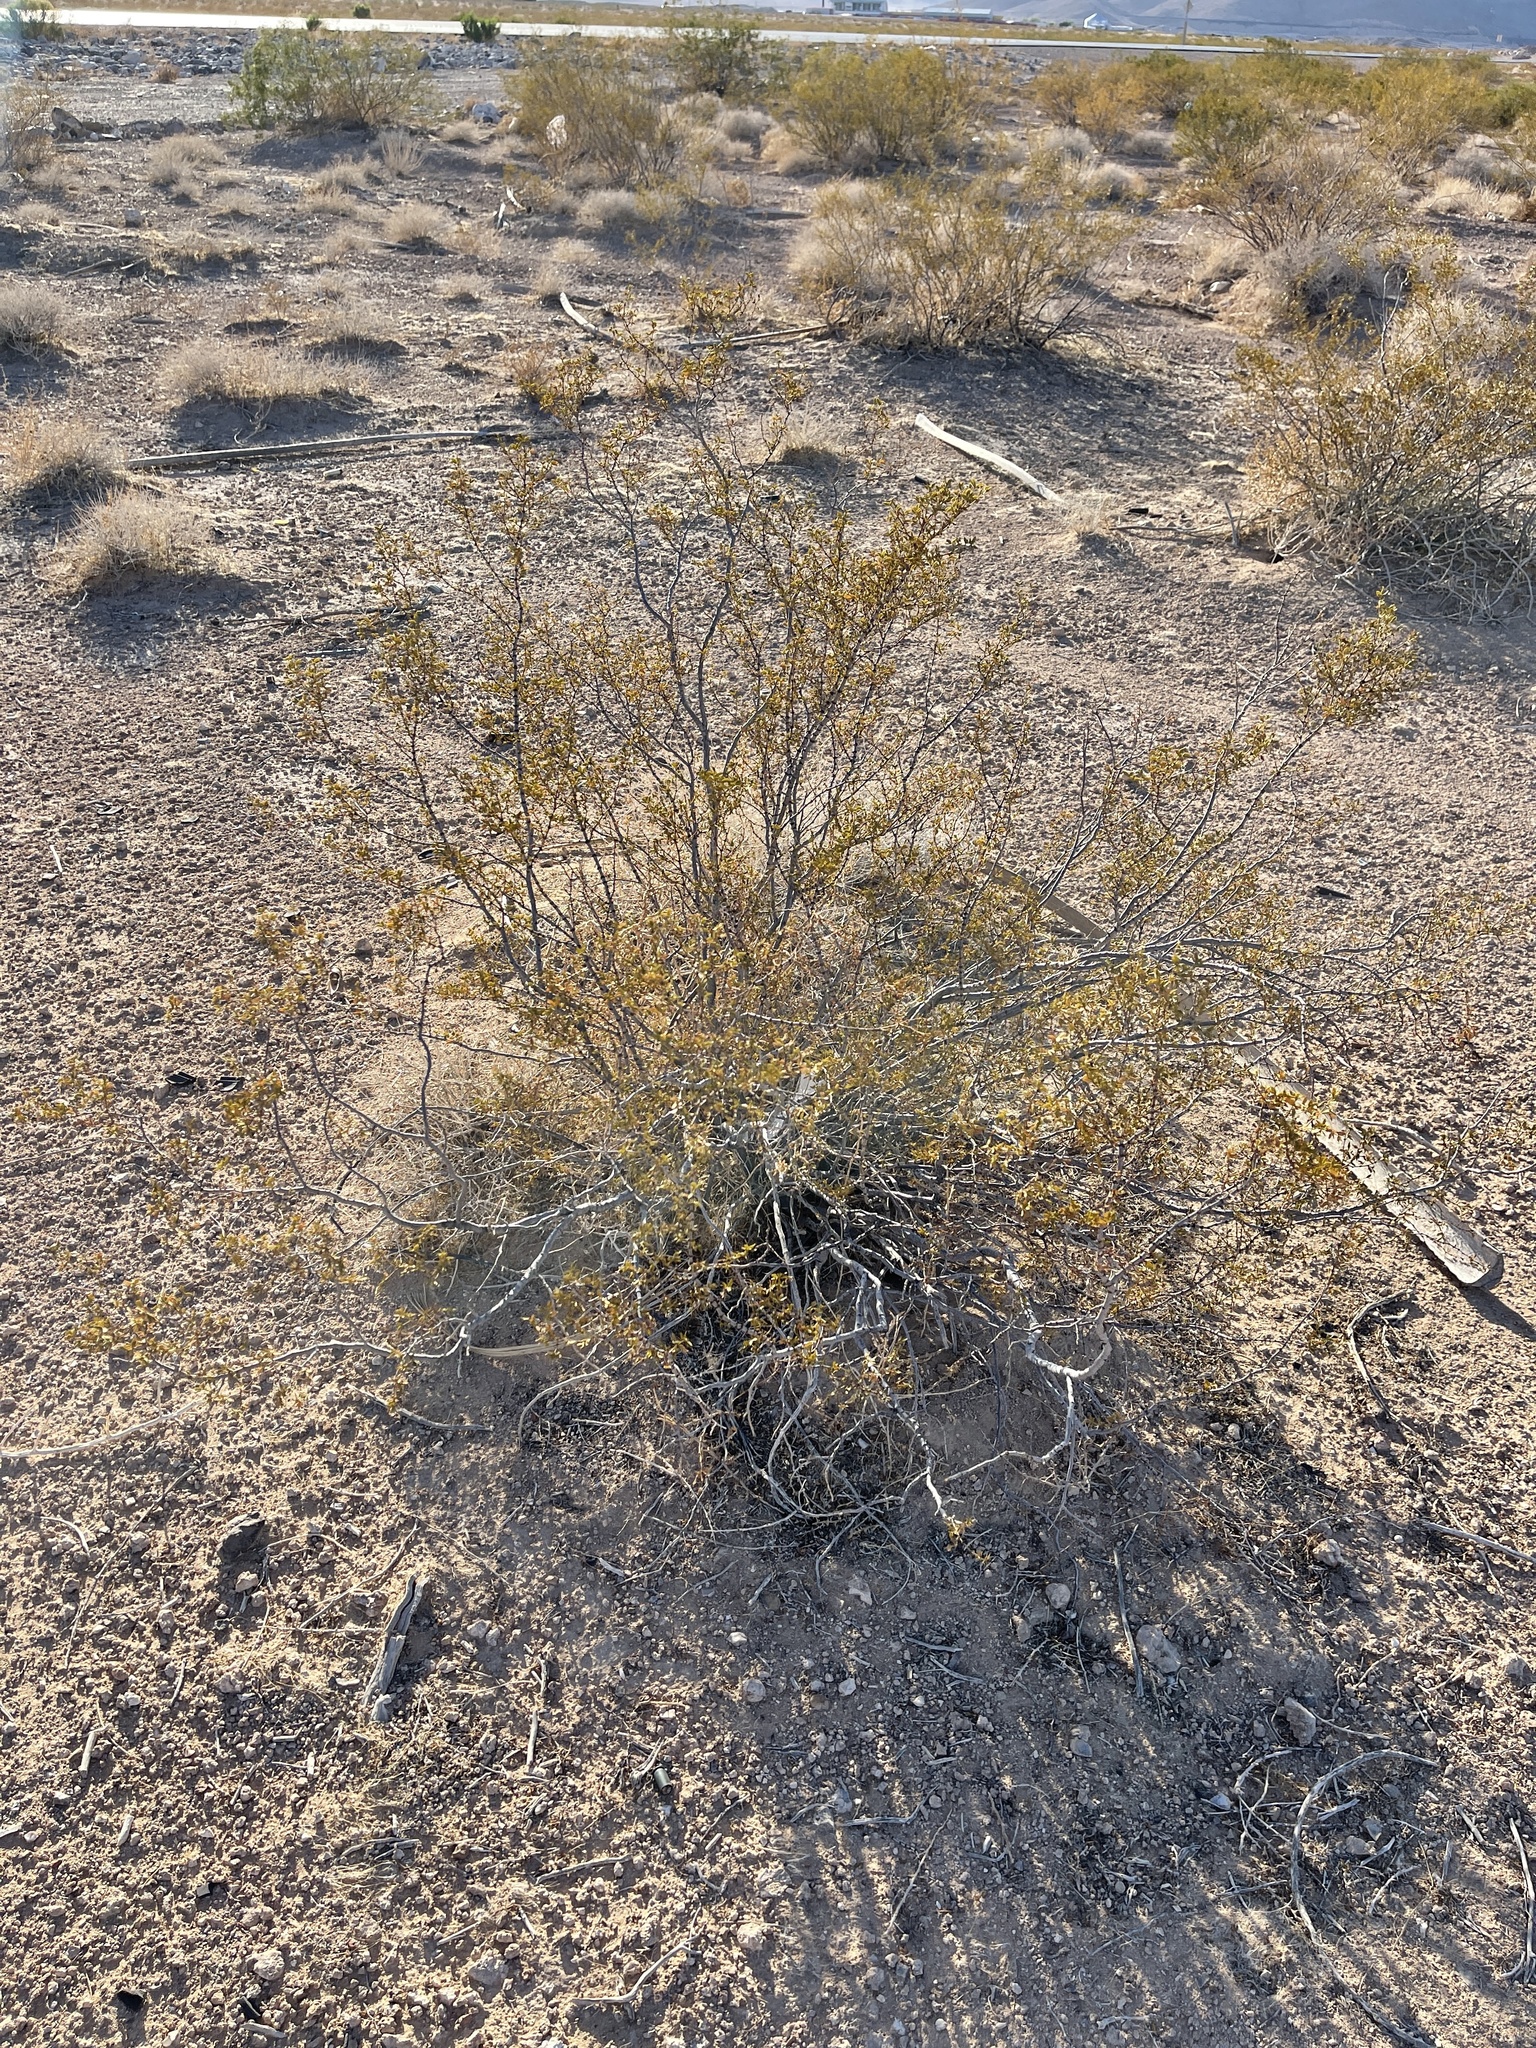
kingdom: Plantae
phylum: Tracheophyta
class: Magnoliopsida
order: Zygophyllales
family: Zygophyllaceae
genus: Larrea
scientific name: Larrea tridentata
